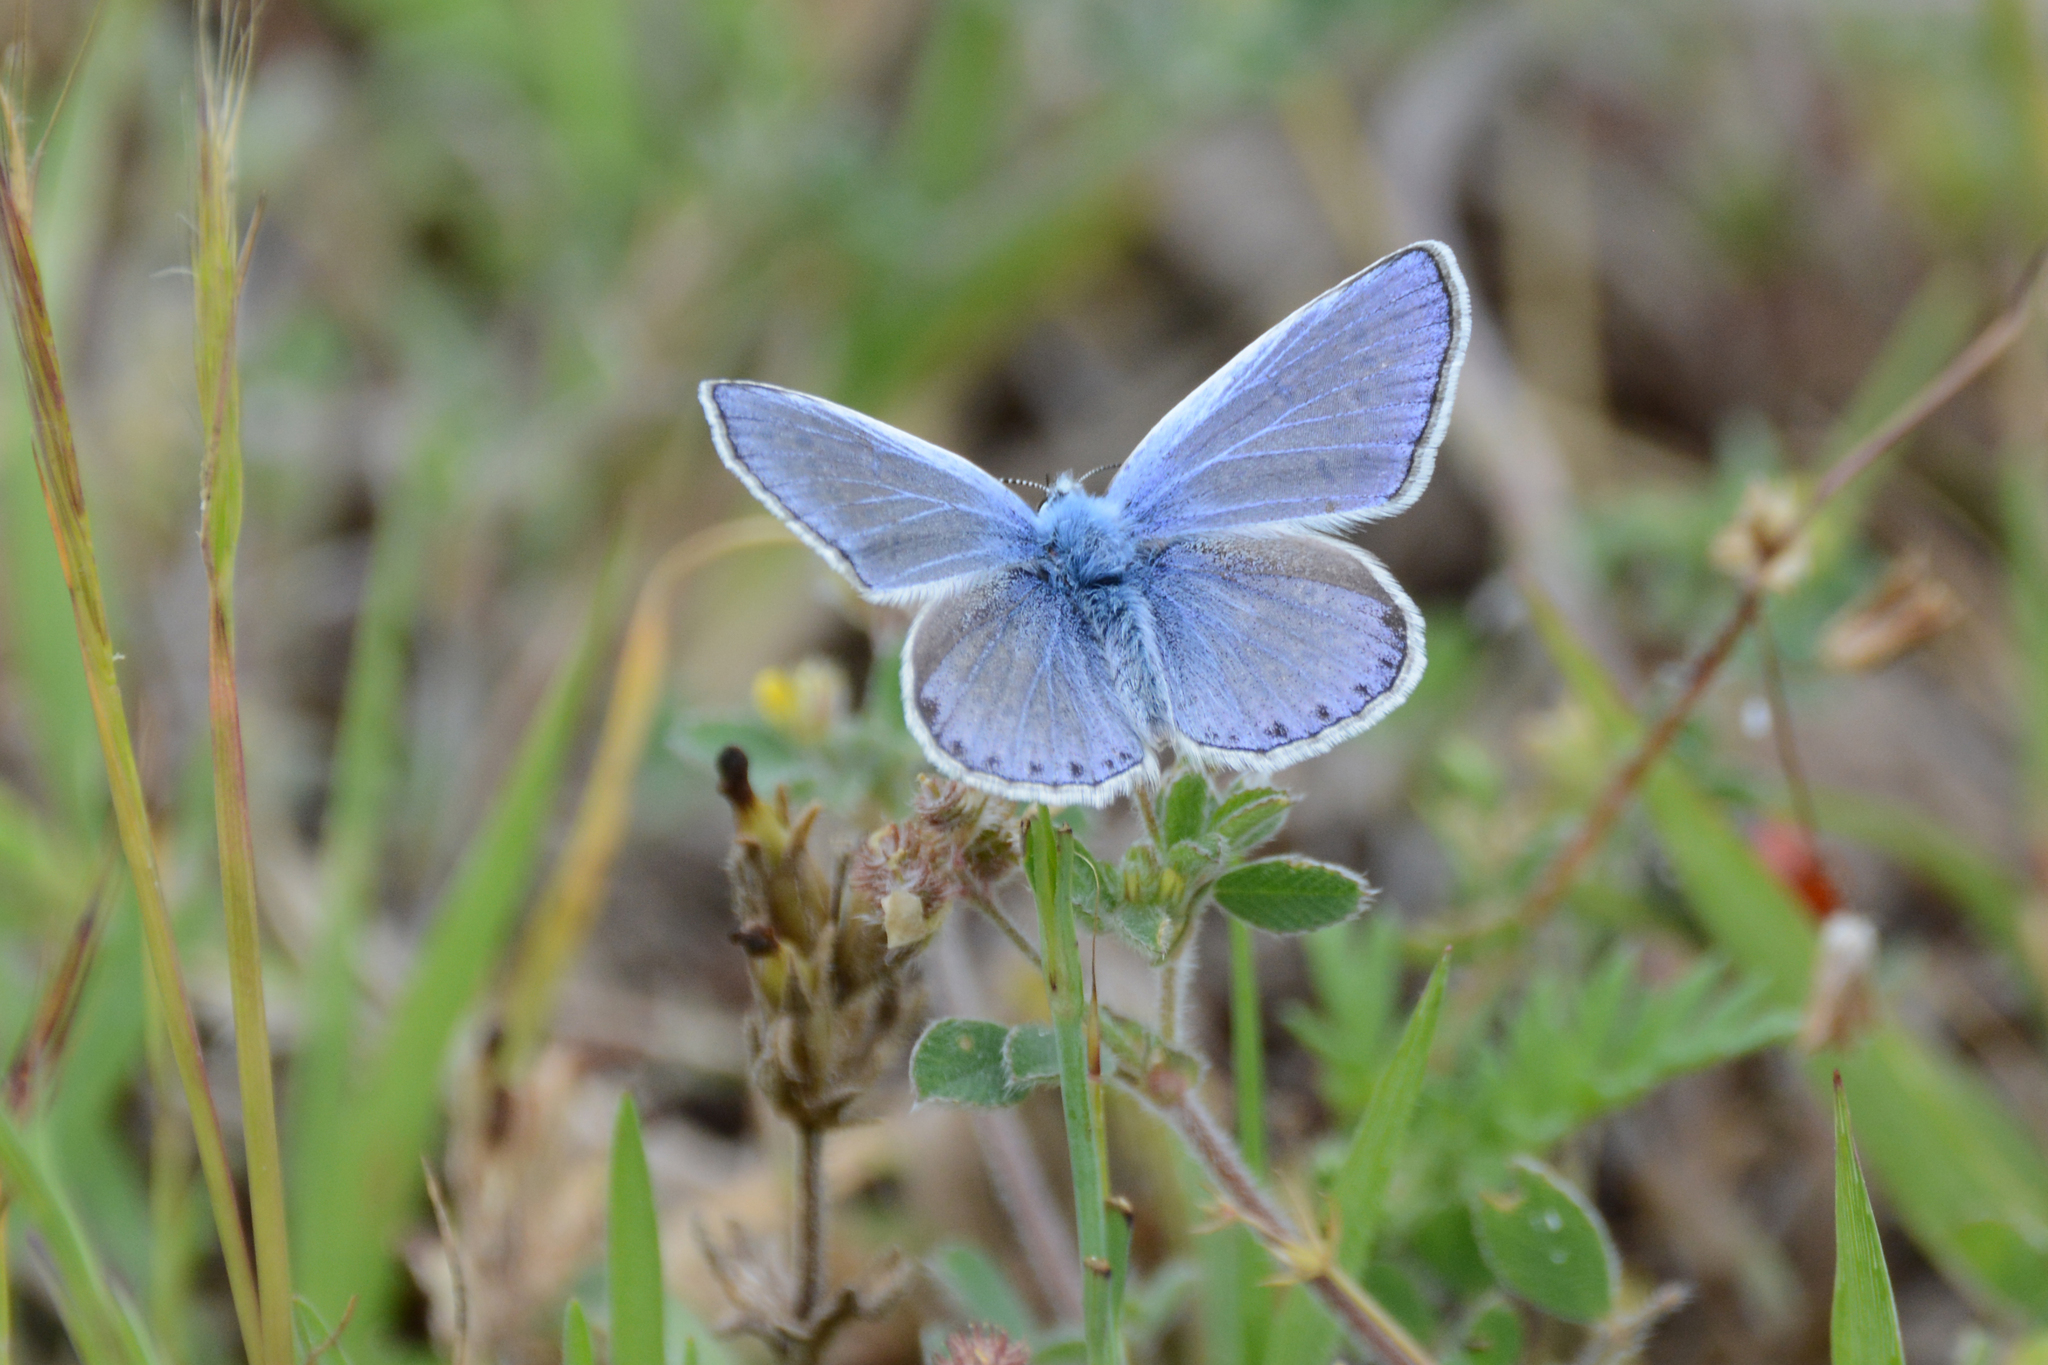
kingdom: Animalia
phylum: Arthropoda
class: Insecta
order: Lepidoptera
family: Lycaenidae
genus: Polyommatus
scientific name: Polyommatus icarus
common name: Common blue
